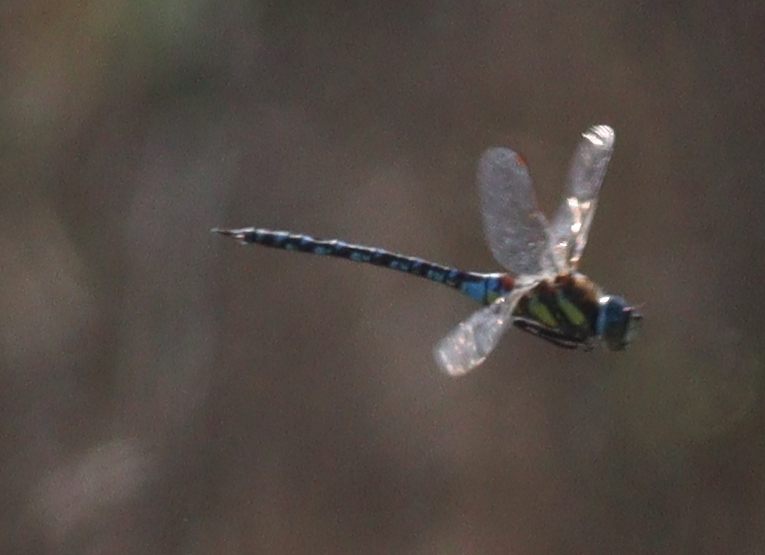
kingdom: Animalia
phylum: Arthropoda
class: Insecta
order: Odonata
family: Aeshnidae
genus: Aeshna
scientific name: Aeshna mixta
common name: Migrant hawker
